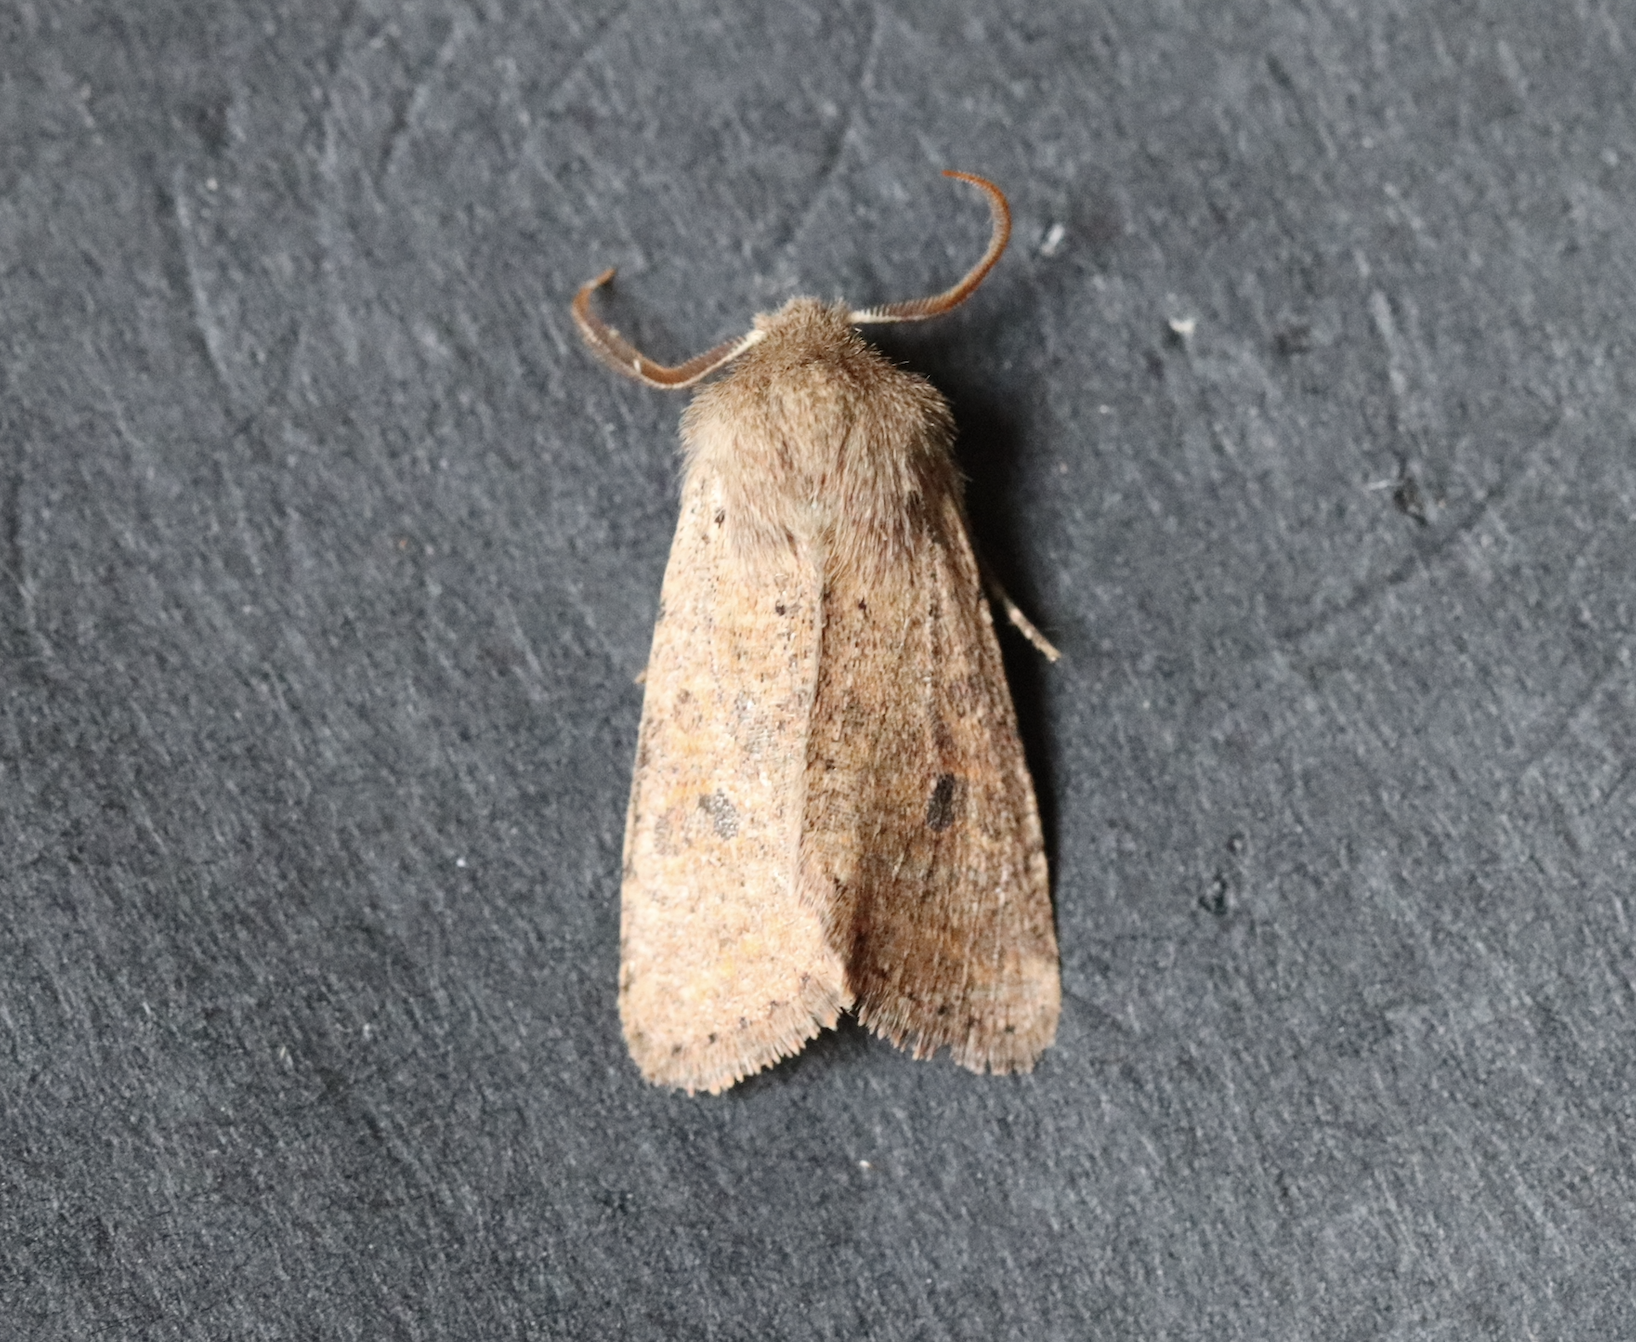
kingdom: Animalia
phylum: Arthropoda
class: Insecta
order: Lepidoptera
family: Noctuidae
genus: Orthosia
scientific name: Orthosia cruda
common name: Small quaker
